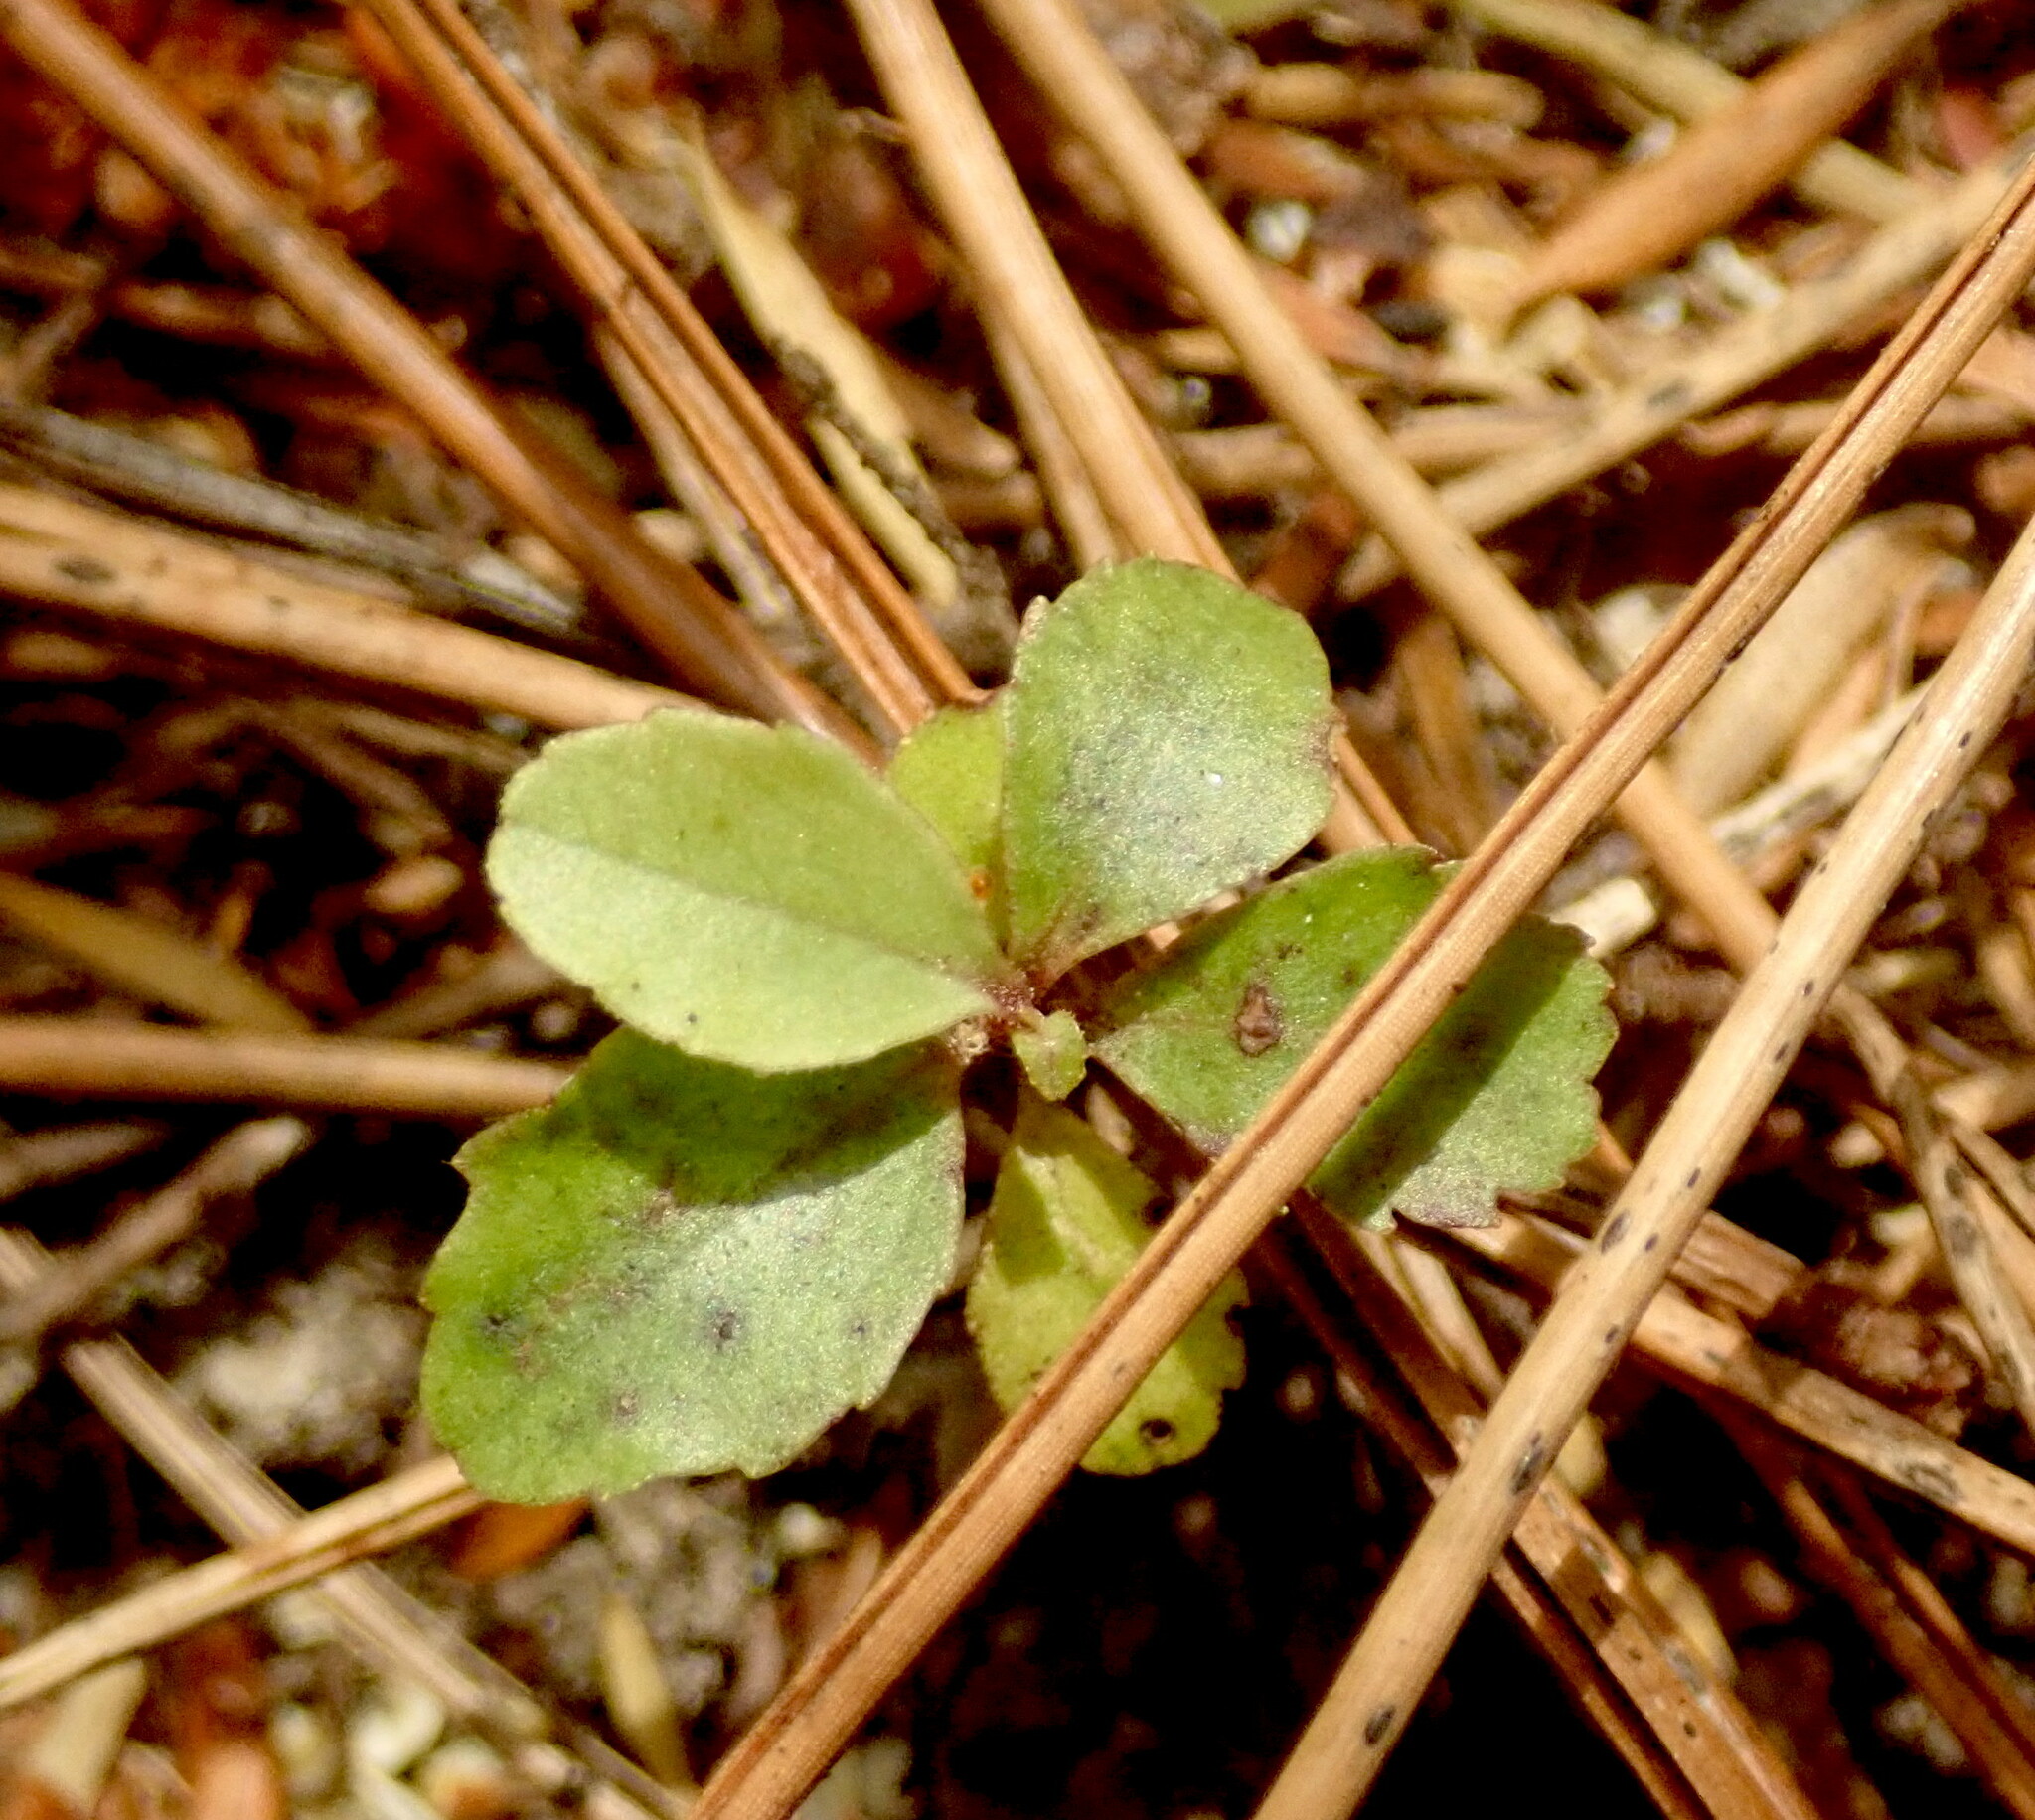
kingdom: Plantae
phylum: Tracheophyta
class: Magnoliopsida
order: Ericales
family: Primulaceae
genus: Myrsine
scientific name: Myrsine australis
